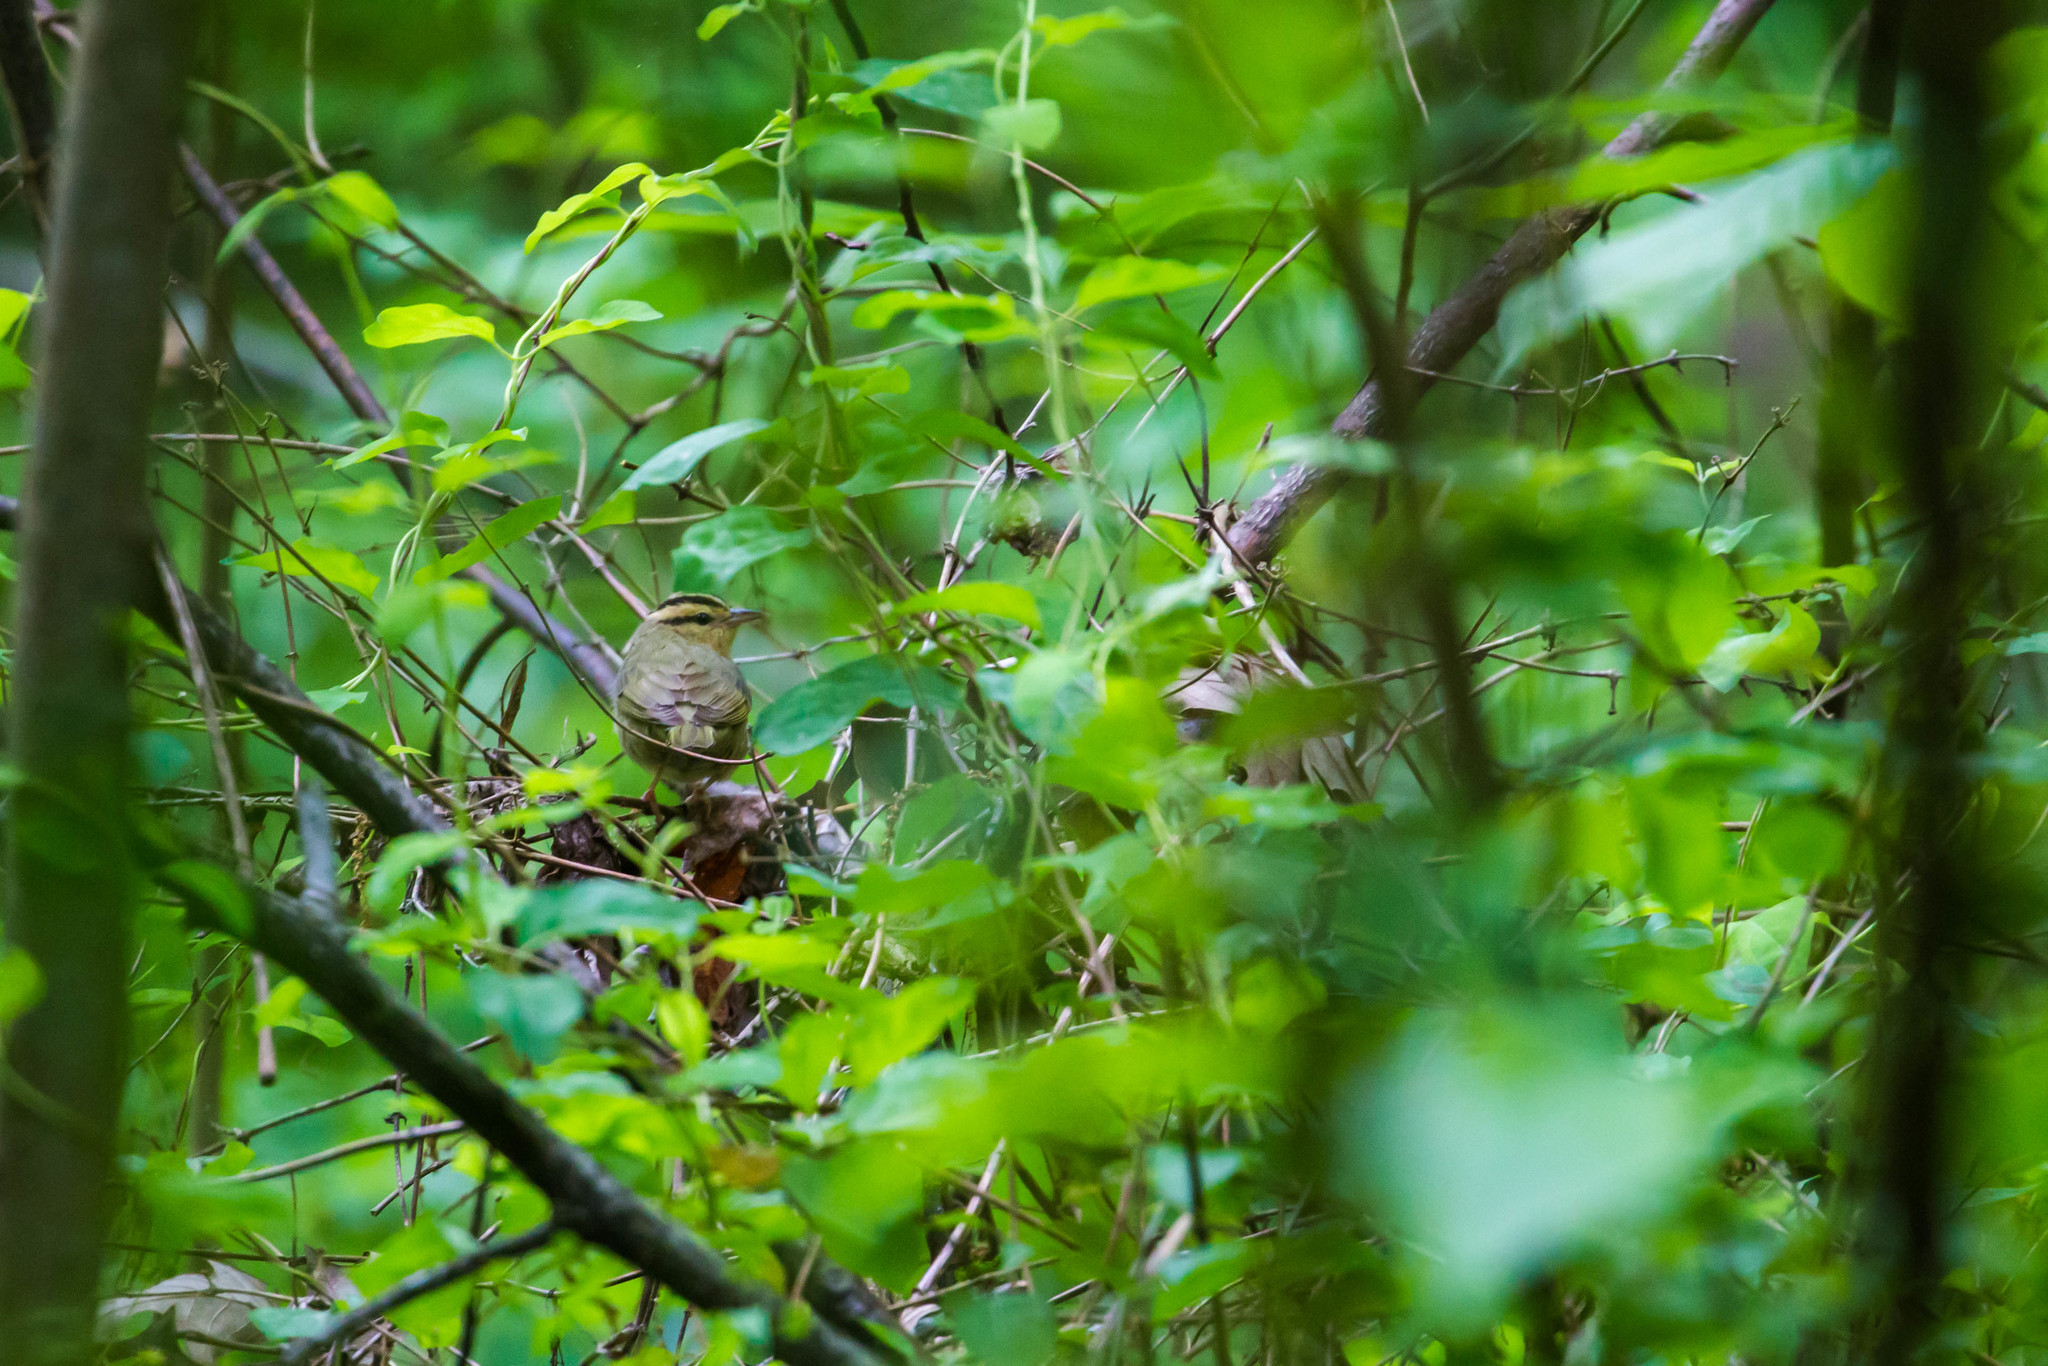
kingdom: Animalia
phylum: Chordata
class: Aves
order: Passeriformes
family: Parulidae
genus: Helmitheros
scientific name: Helmitheros vermivorum
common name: Worm-eating warbler
